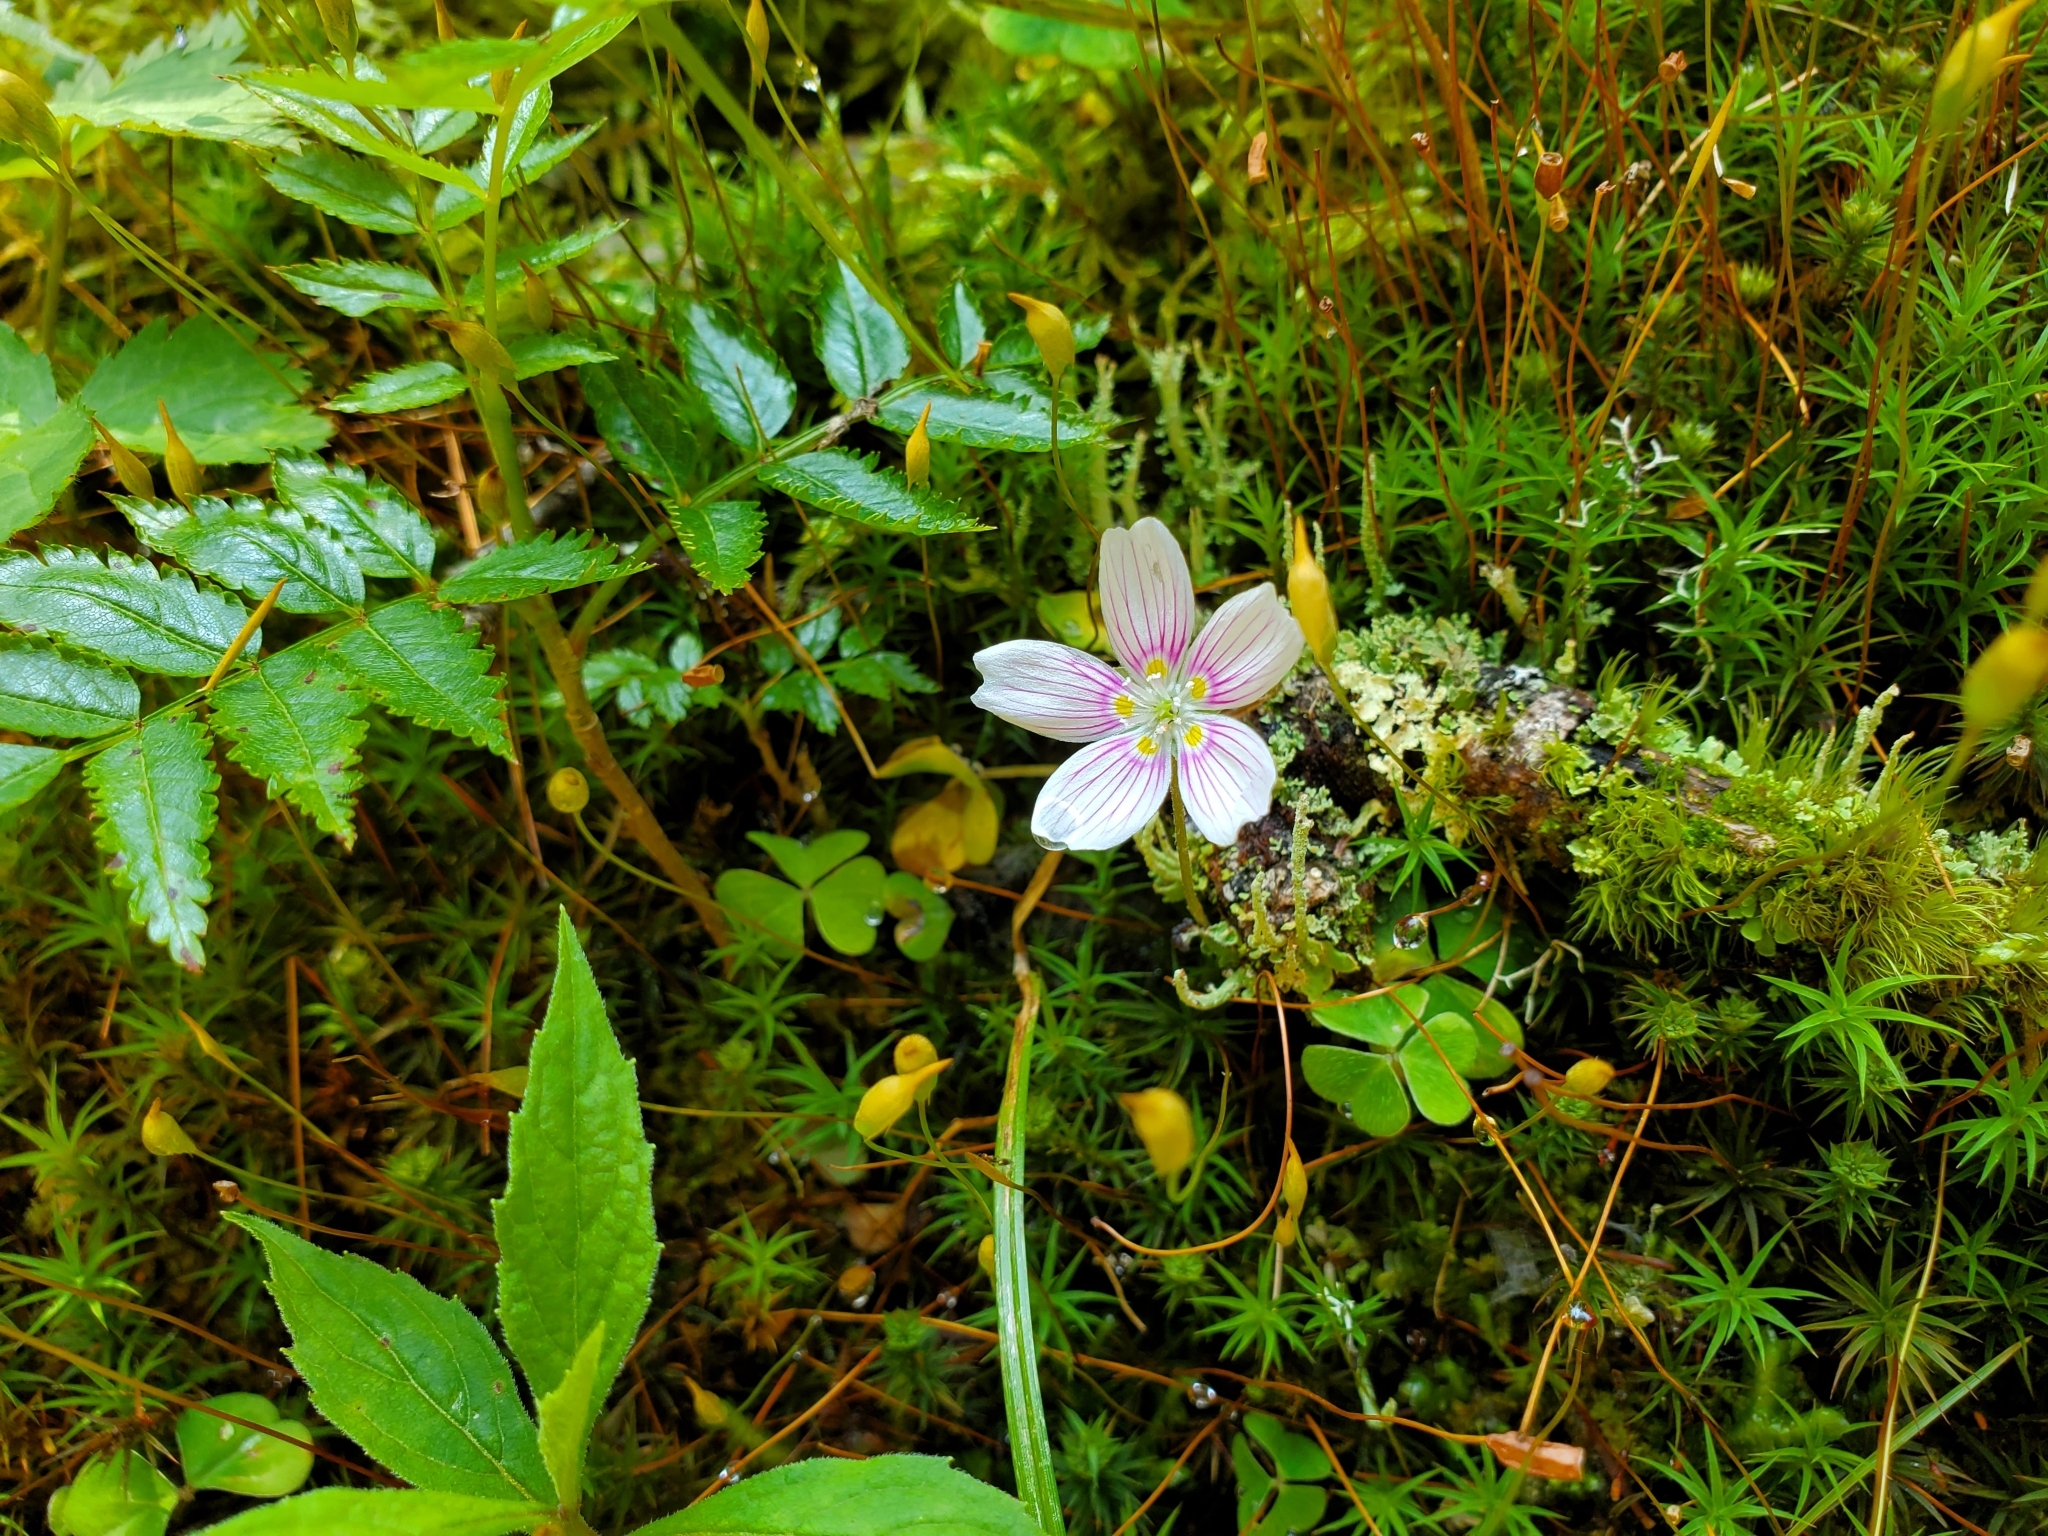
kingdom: Plantae
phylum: Tracheophyta
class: Magnoliopsida
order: Oxalidales
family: Oxalidaceae
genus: Oxalis
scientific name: Oxalis montana
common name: American wood-sorrel
